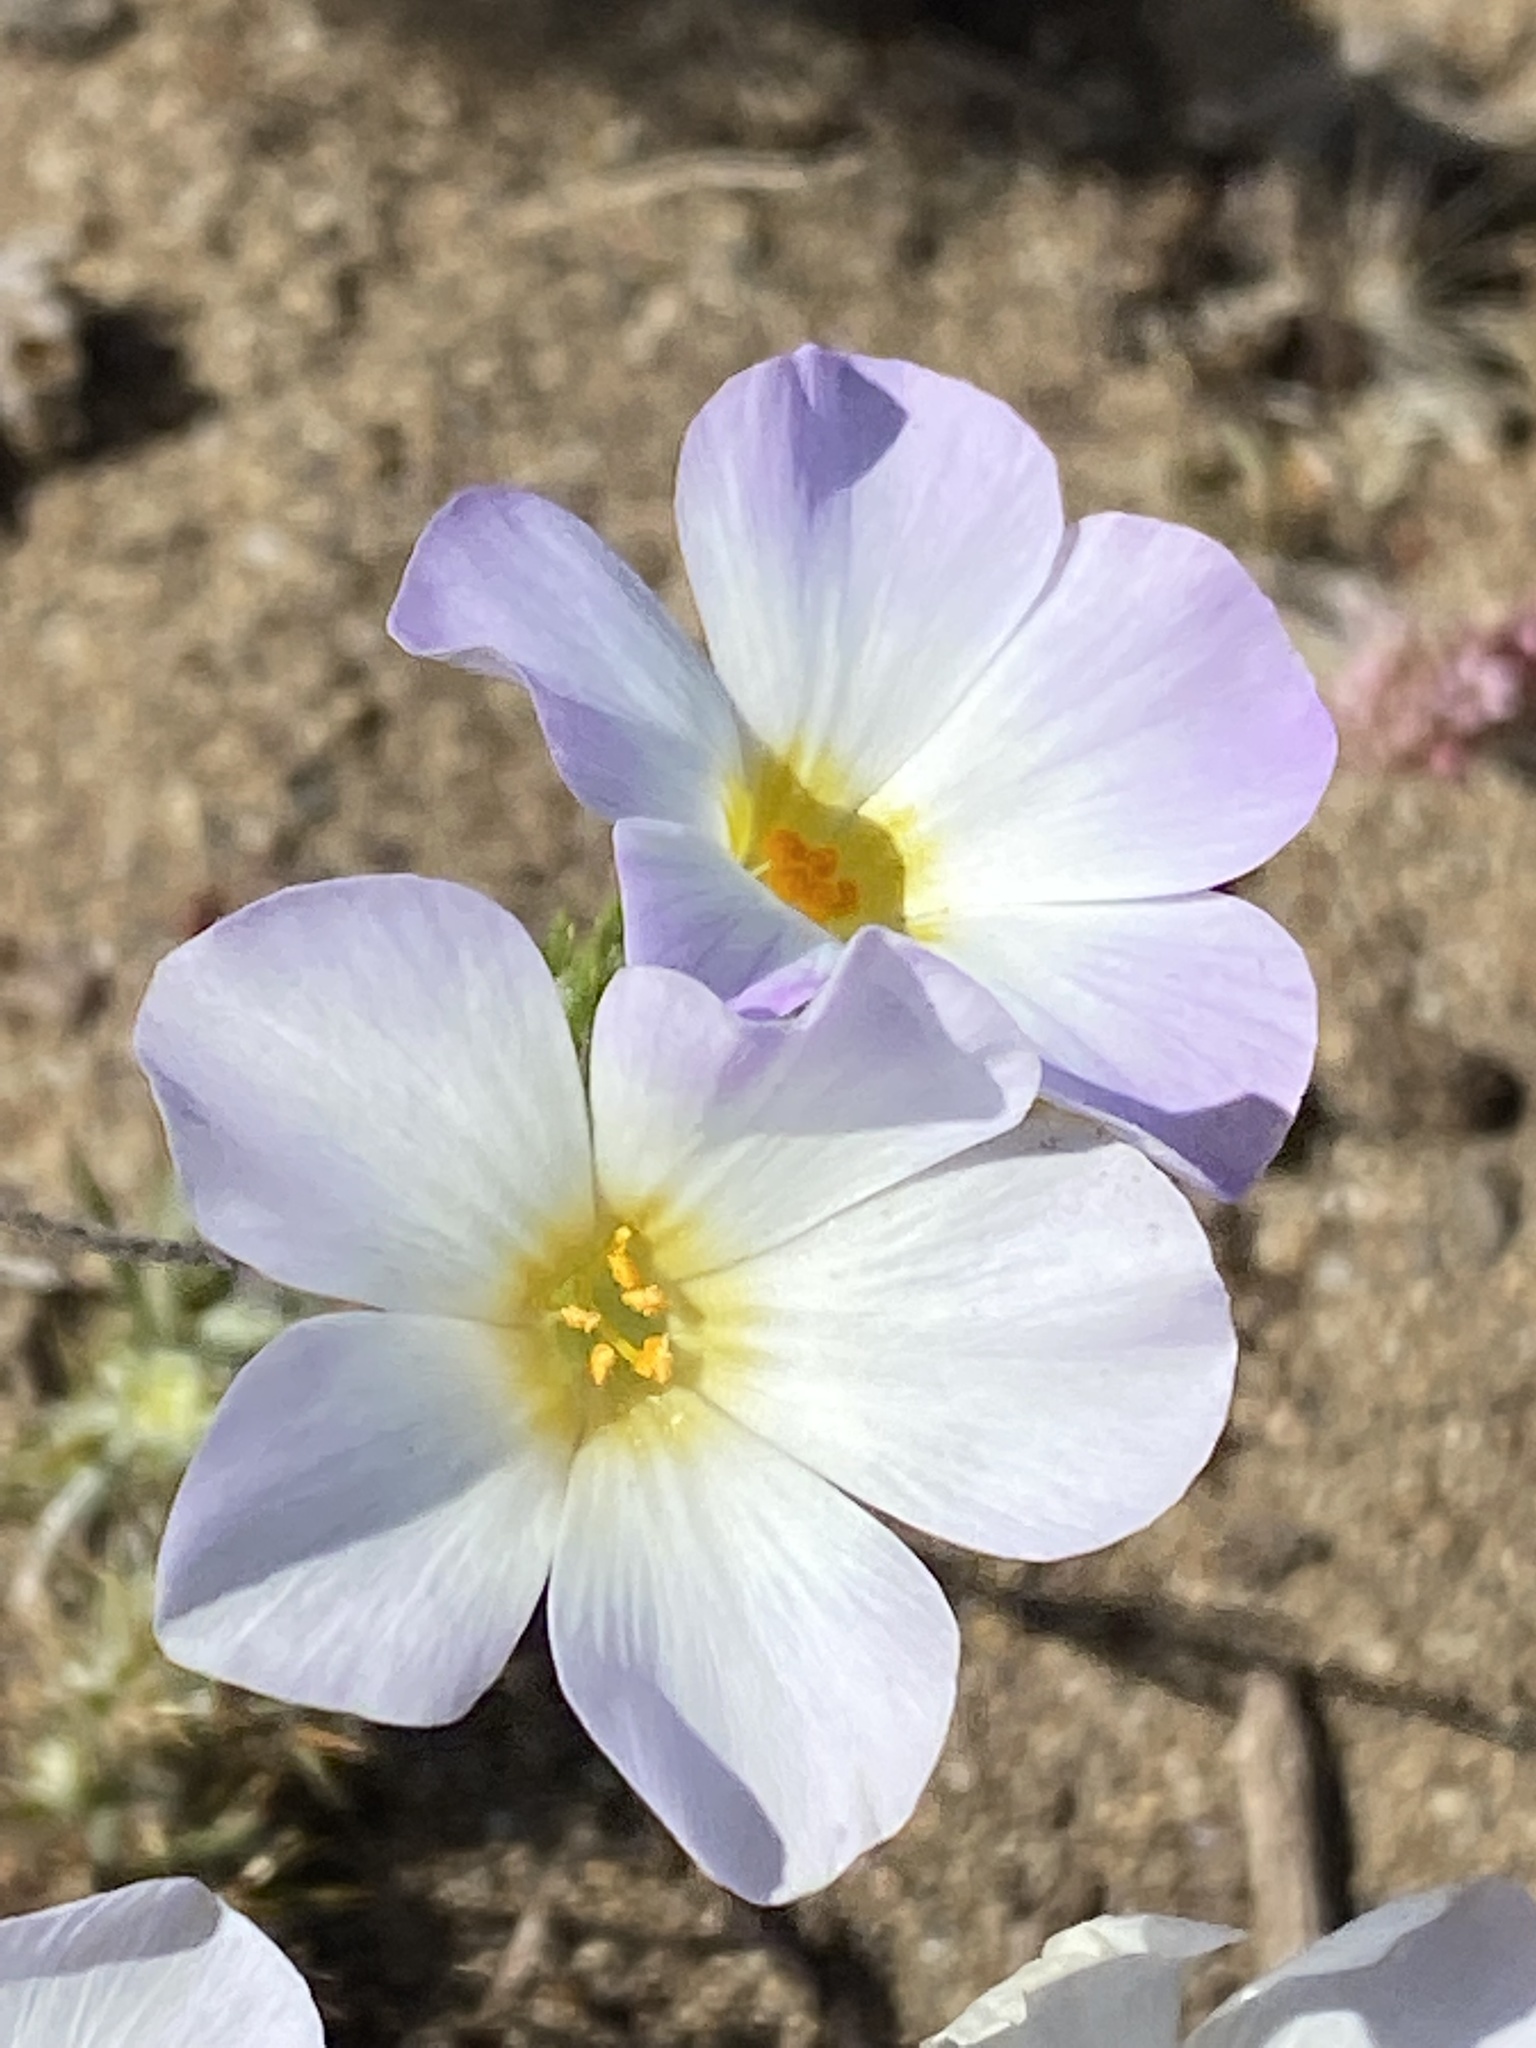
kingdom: Plantae
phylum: Tracheophyta
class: Magnoliopsida
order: Ericales
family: Polemoniaceae
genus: Leptosiphon
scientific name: Leptosiphon grandiflorus
